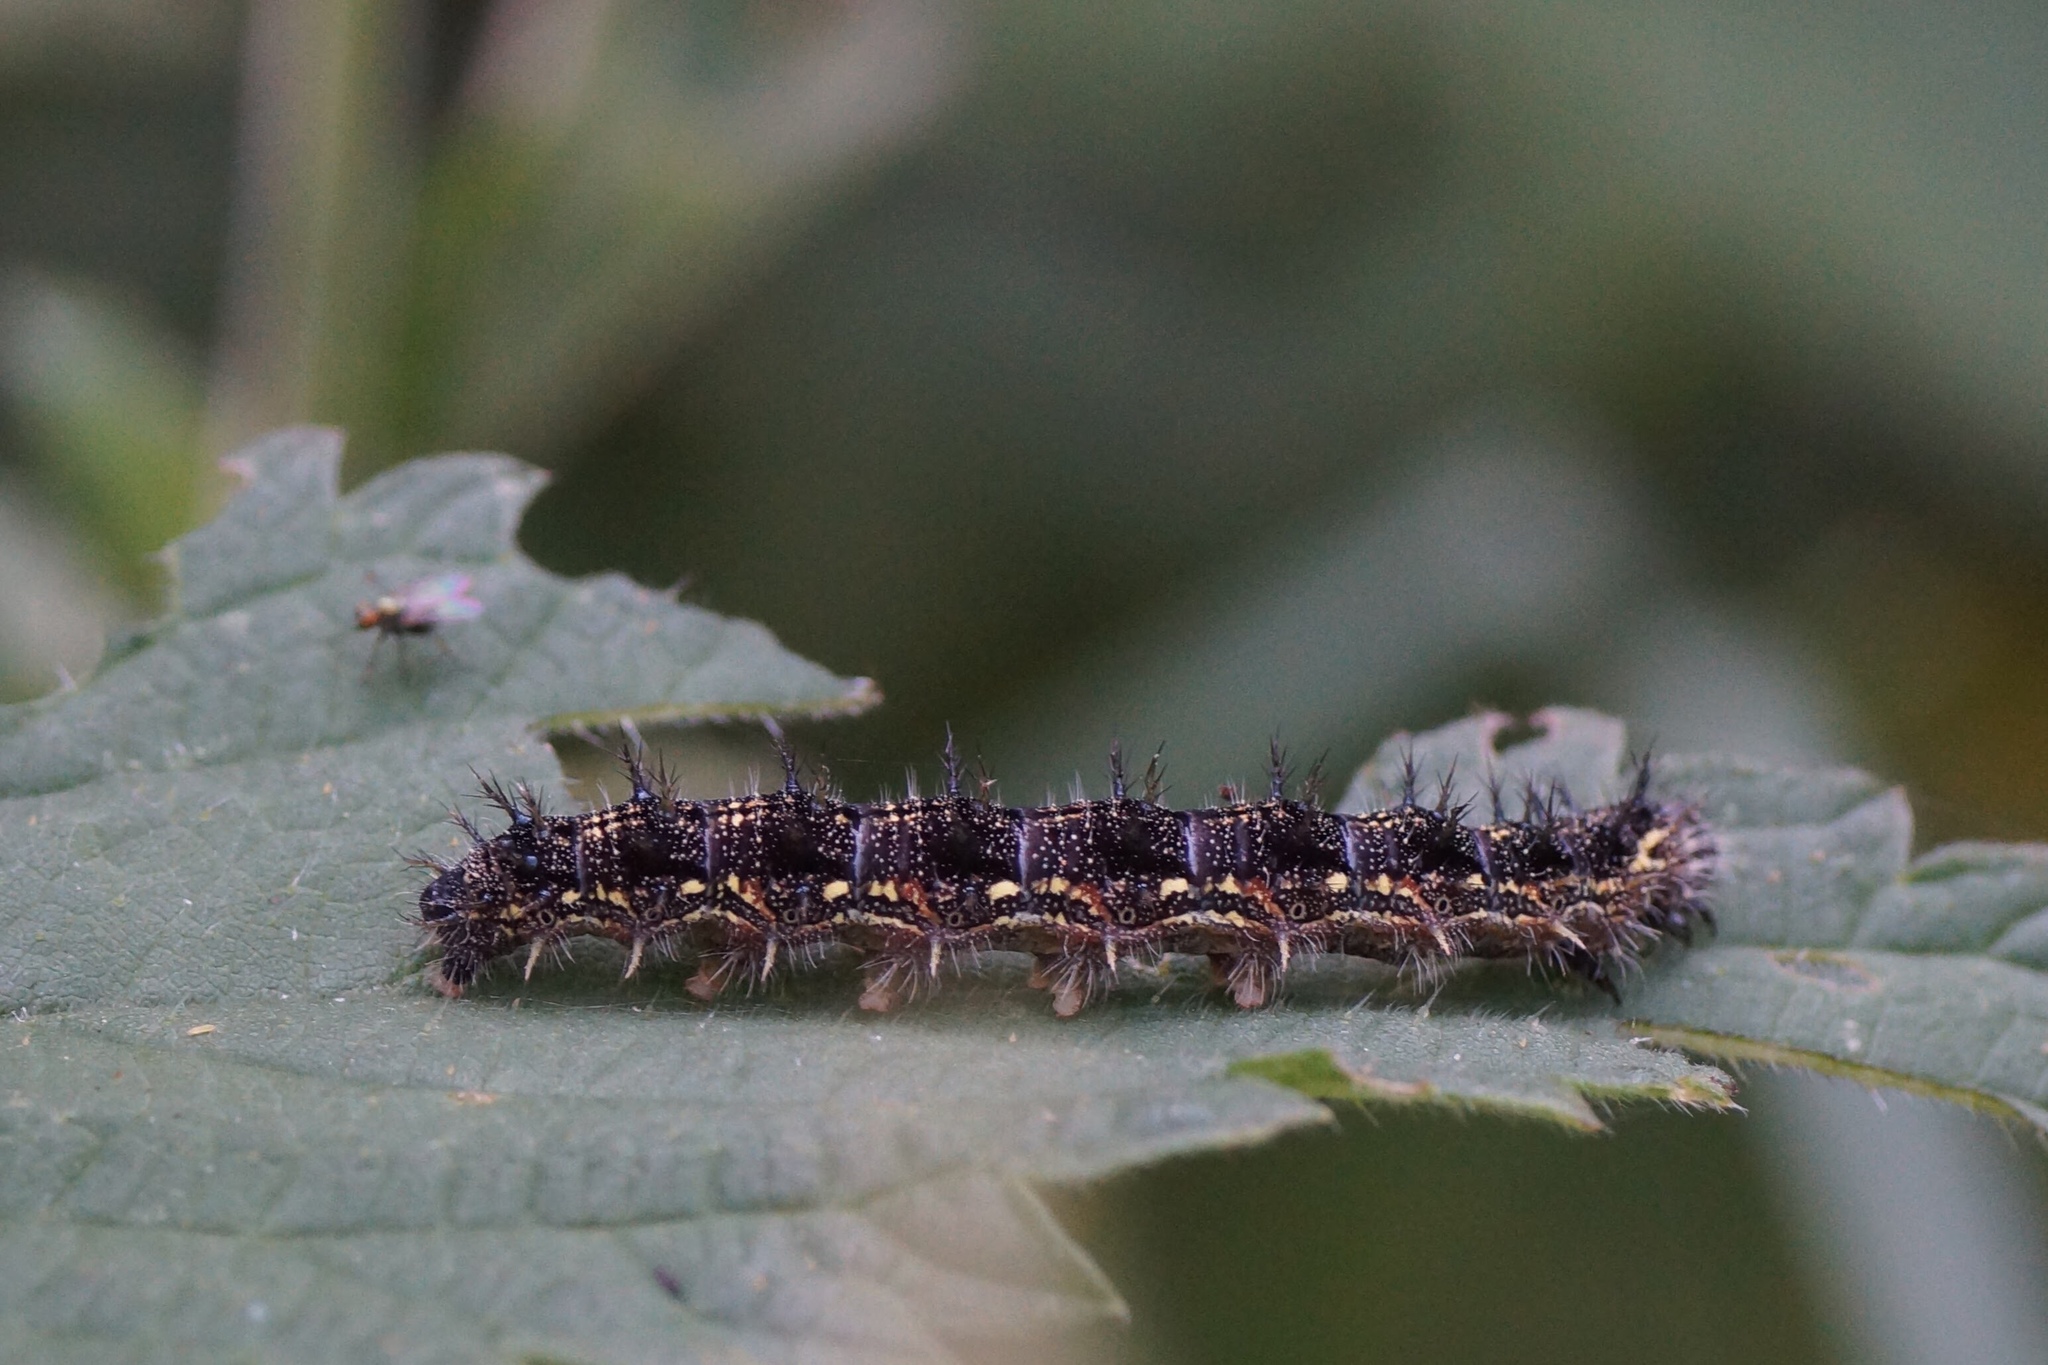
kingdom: Animalia
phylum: Arthropoda
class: Insecta
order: Lepidoptera
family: Nymphalidae
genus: Aglais
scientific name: Aglais urticae
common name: Small tortoiseshell
